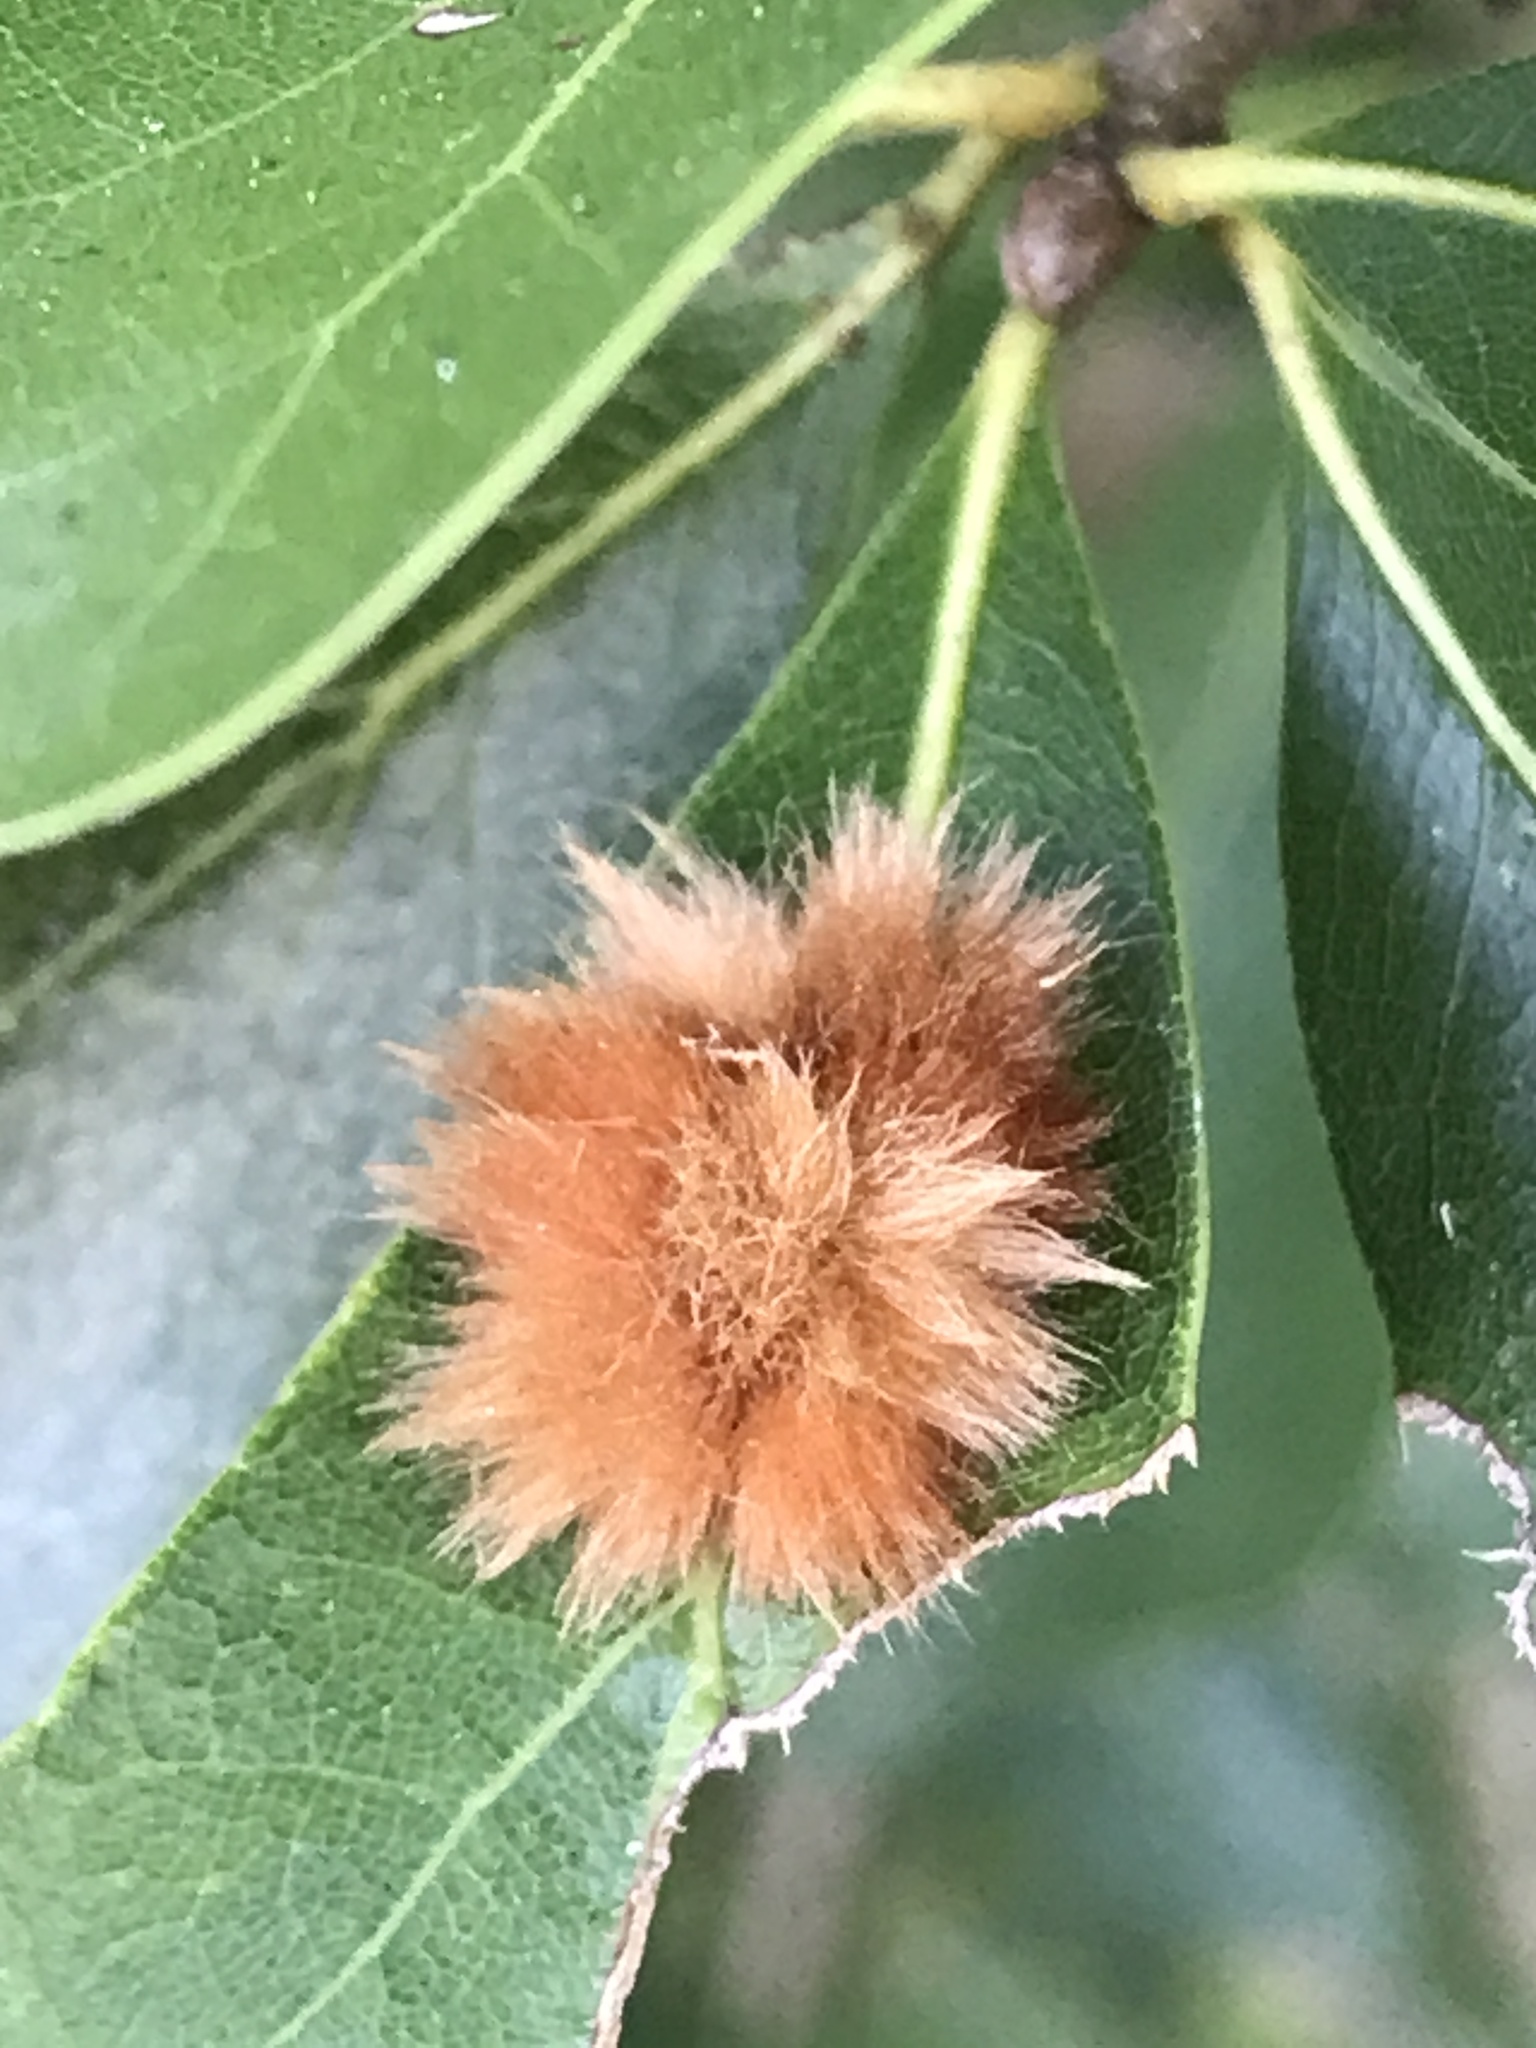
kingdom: Animalia
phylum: Arthropoda
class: Insecta
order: Hymenoptera
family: Cynipidae
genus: Callirhytis
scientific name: Callirhytis
